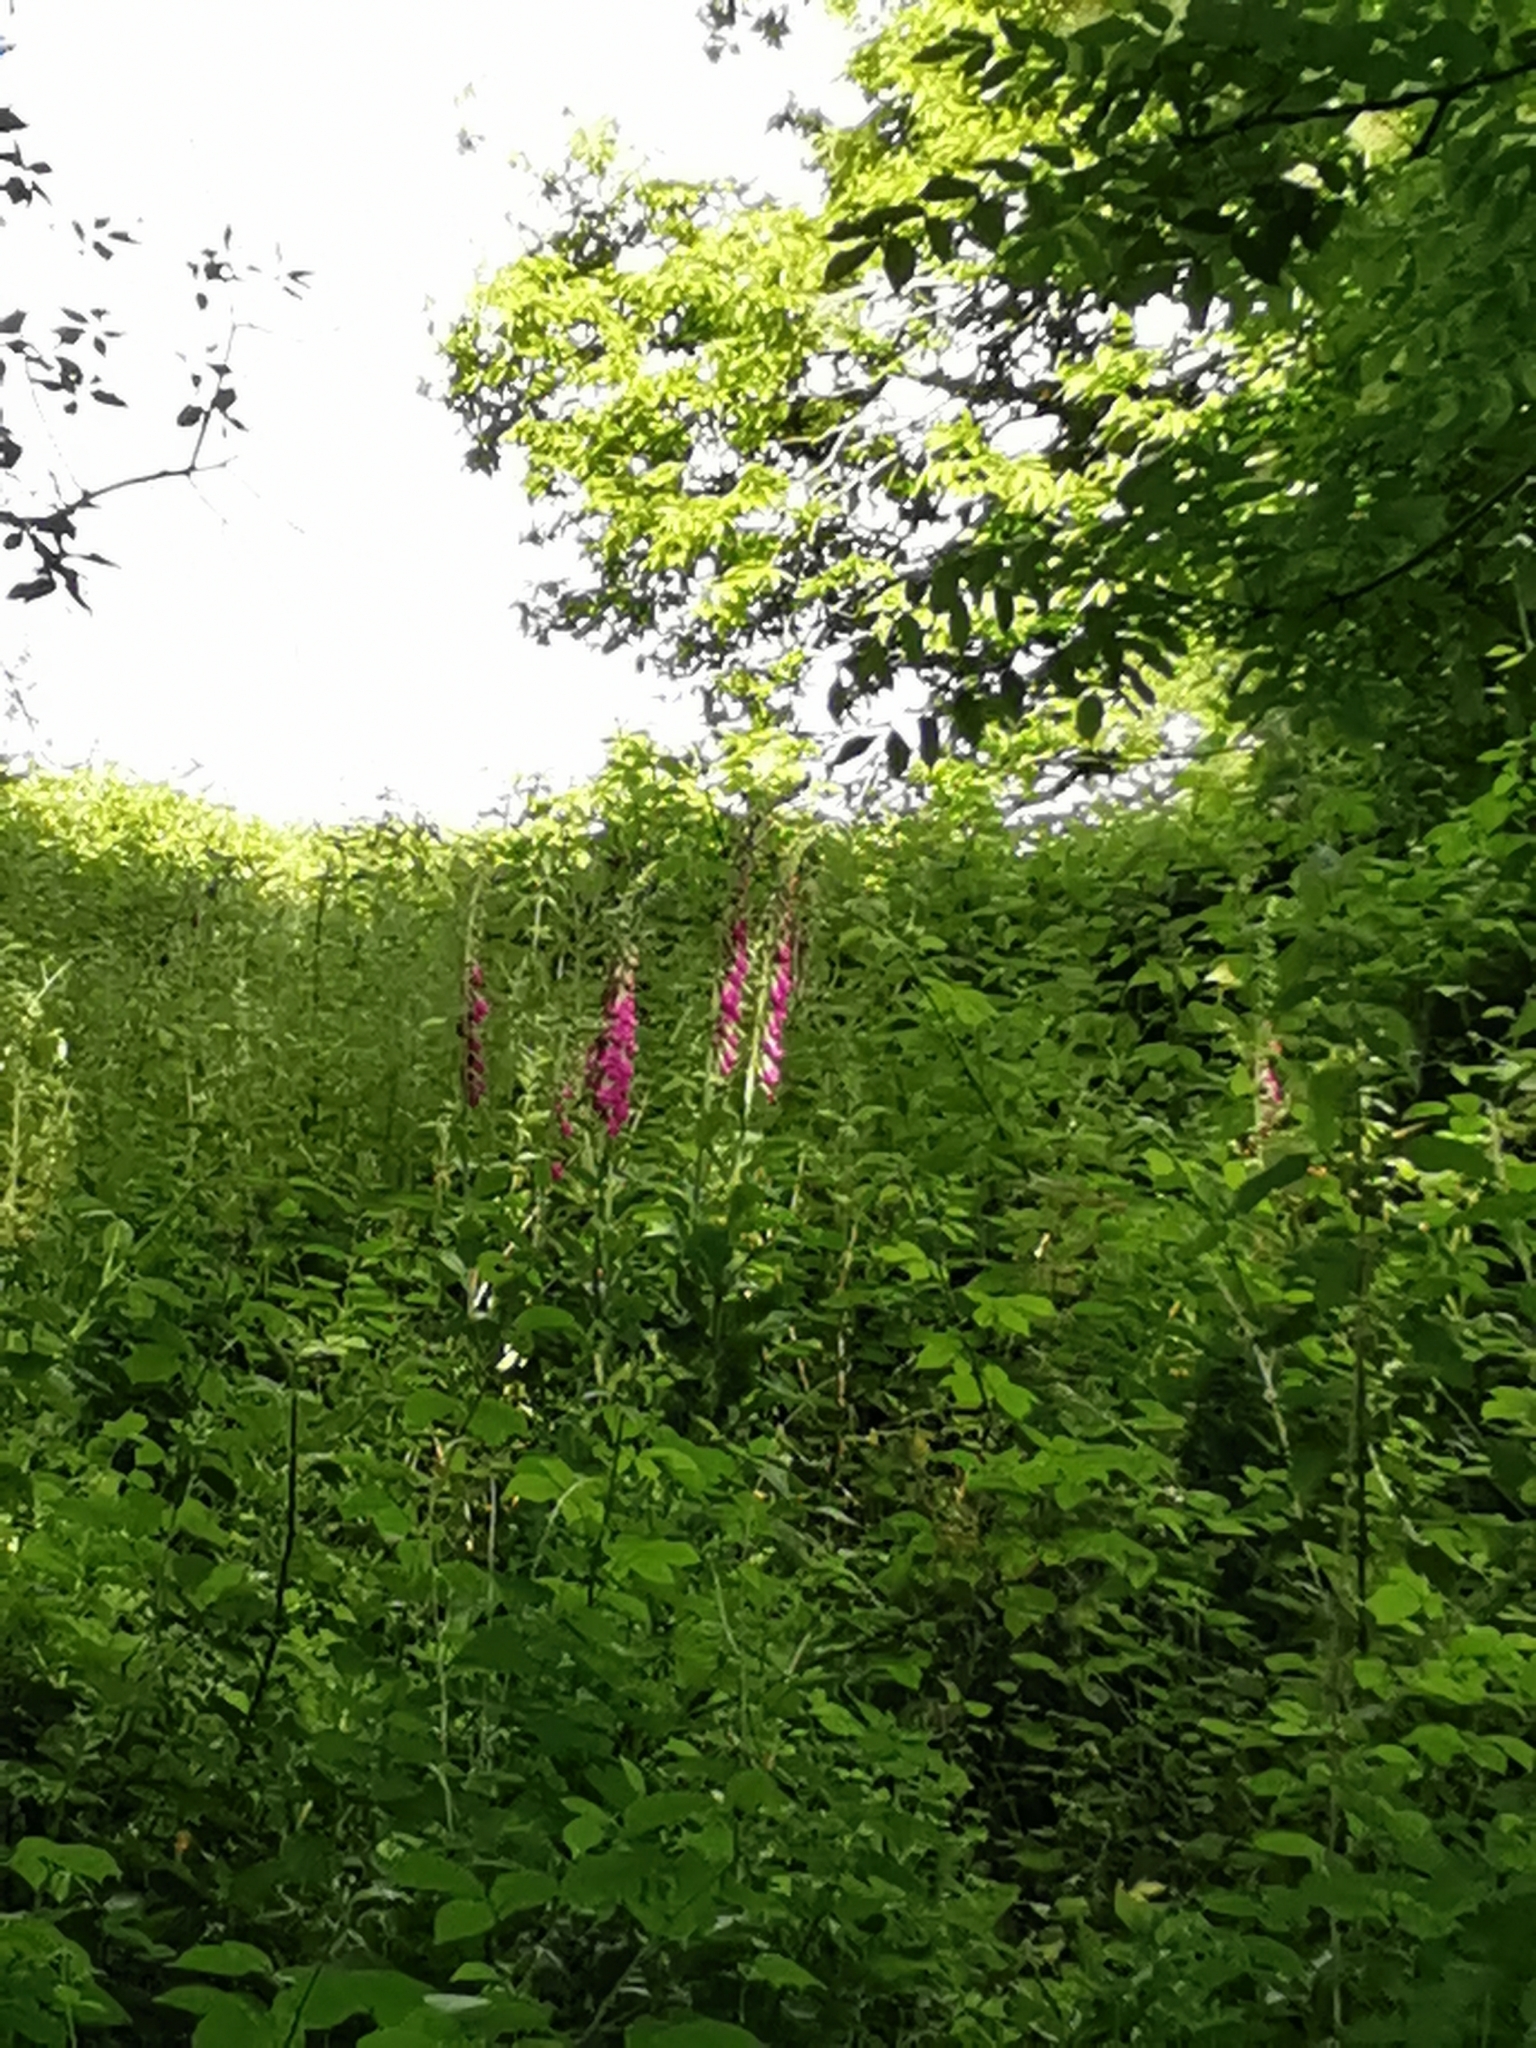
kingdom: Plantae
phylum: Tracheophyta
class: Magnoliopsida
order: Lamiales
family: Plantaginaceae
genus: Digitalis
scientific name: Digitalis purpurea
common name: Foxglove
